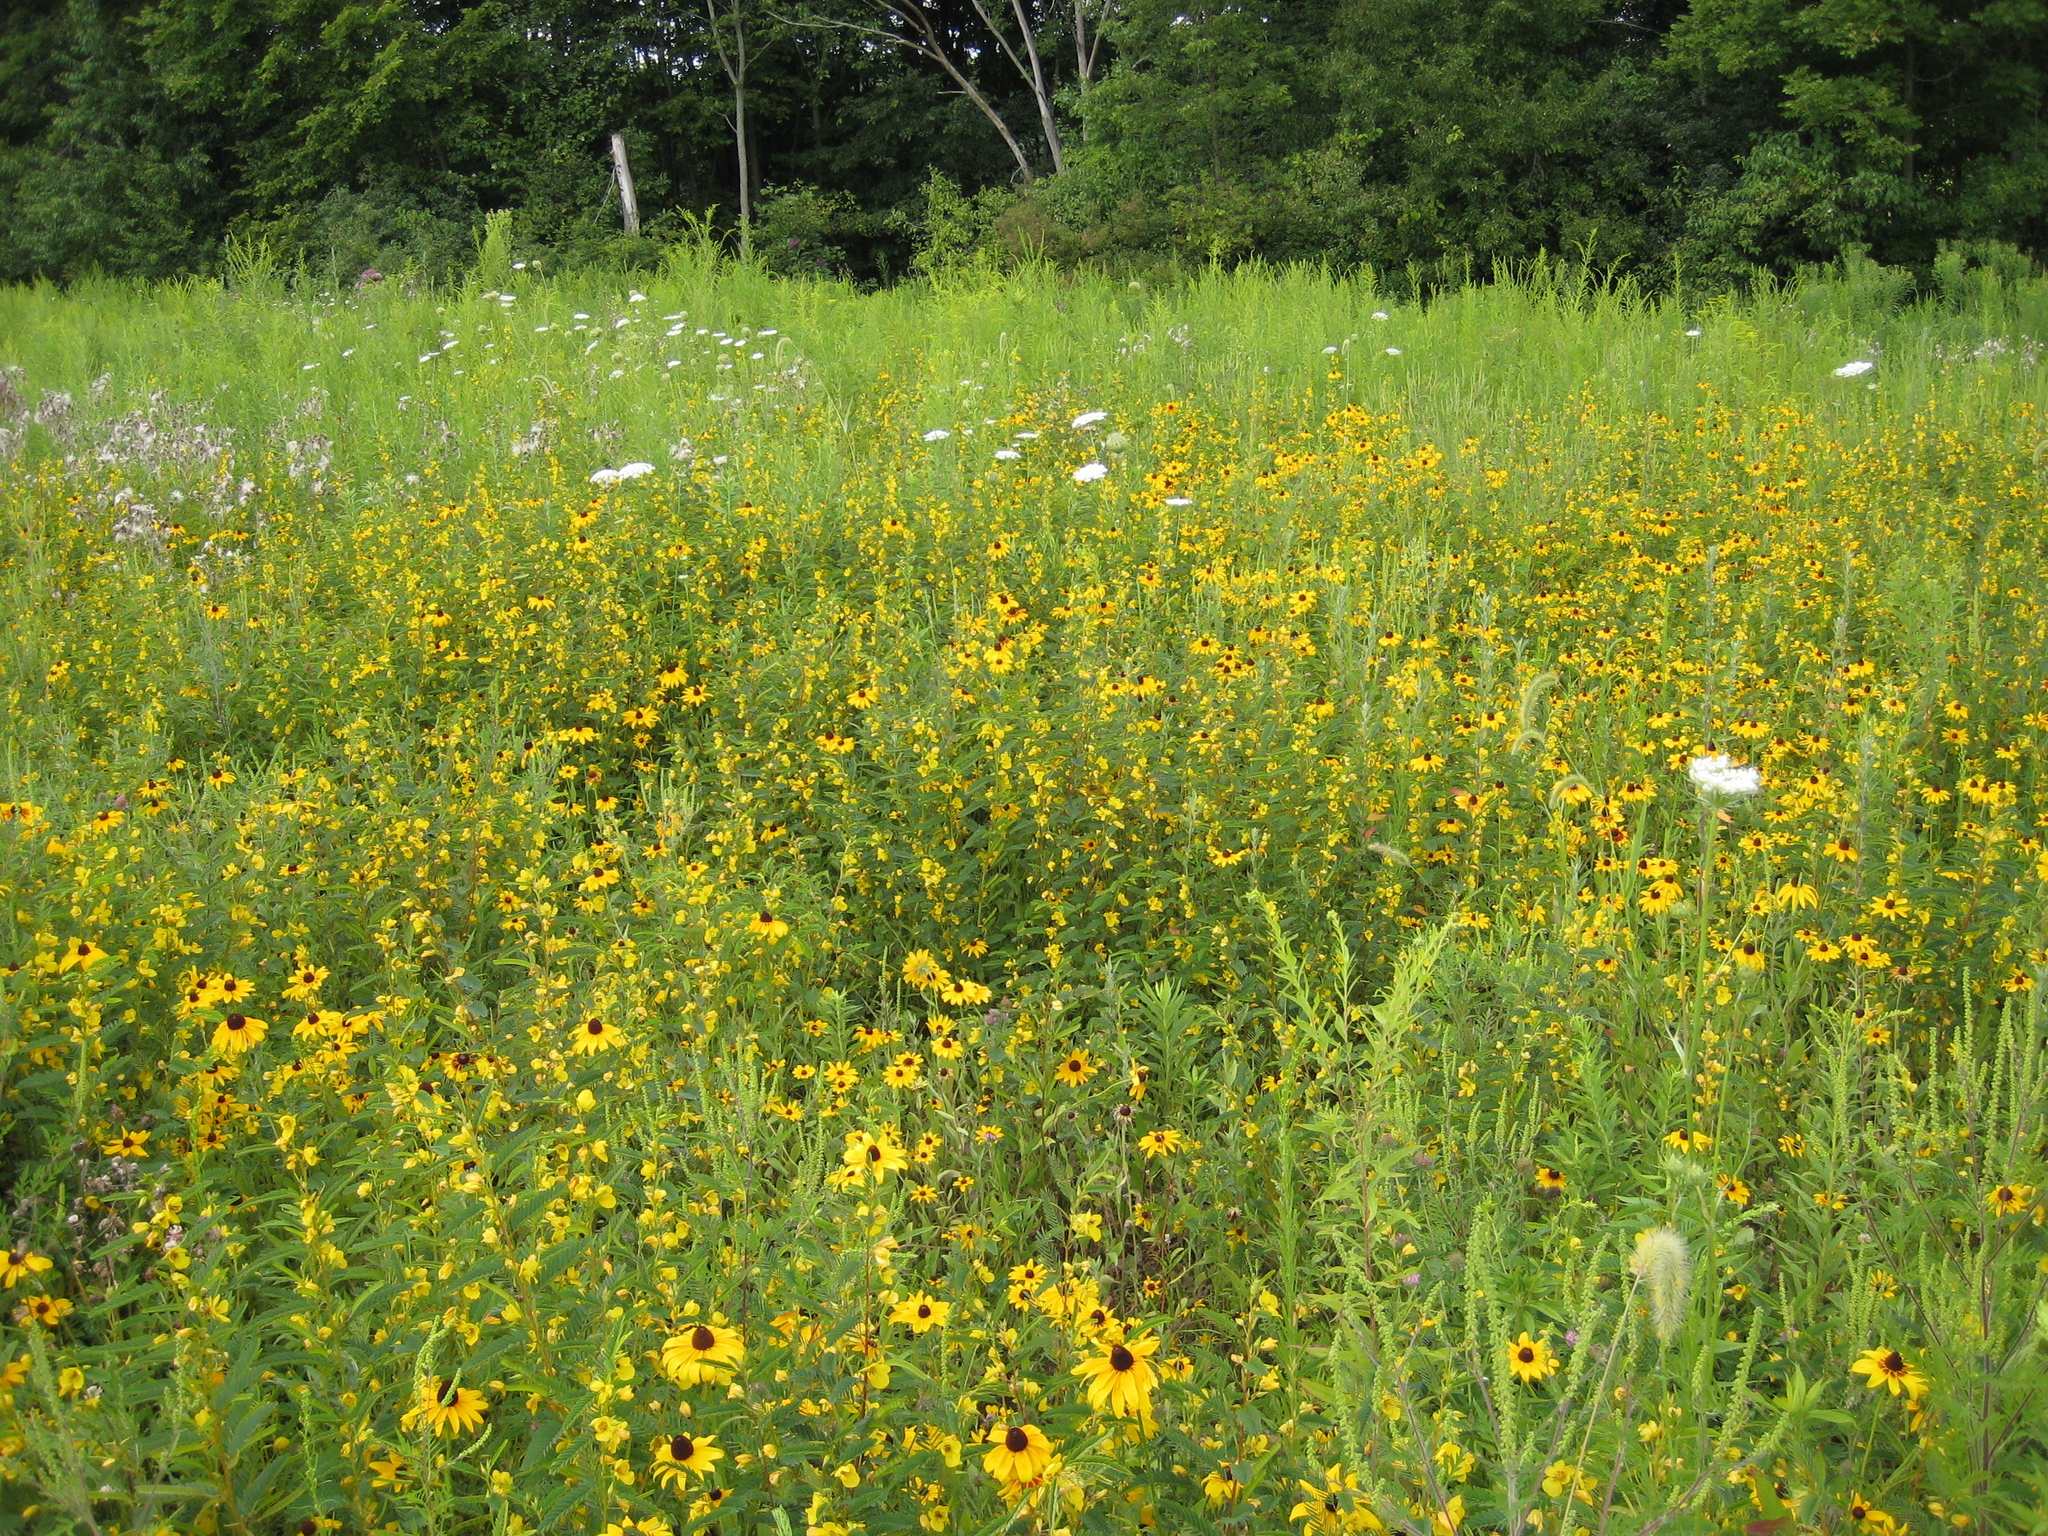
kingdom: Plantae
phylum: Tracheophyta
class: Magnoliopsida
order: Asterales
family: Asteraceae
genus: Rudbeckia
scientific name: Rudbeckia hirta
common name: Black-eyed-susan
